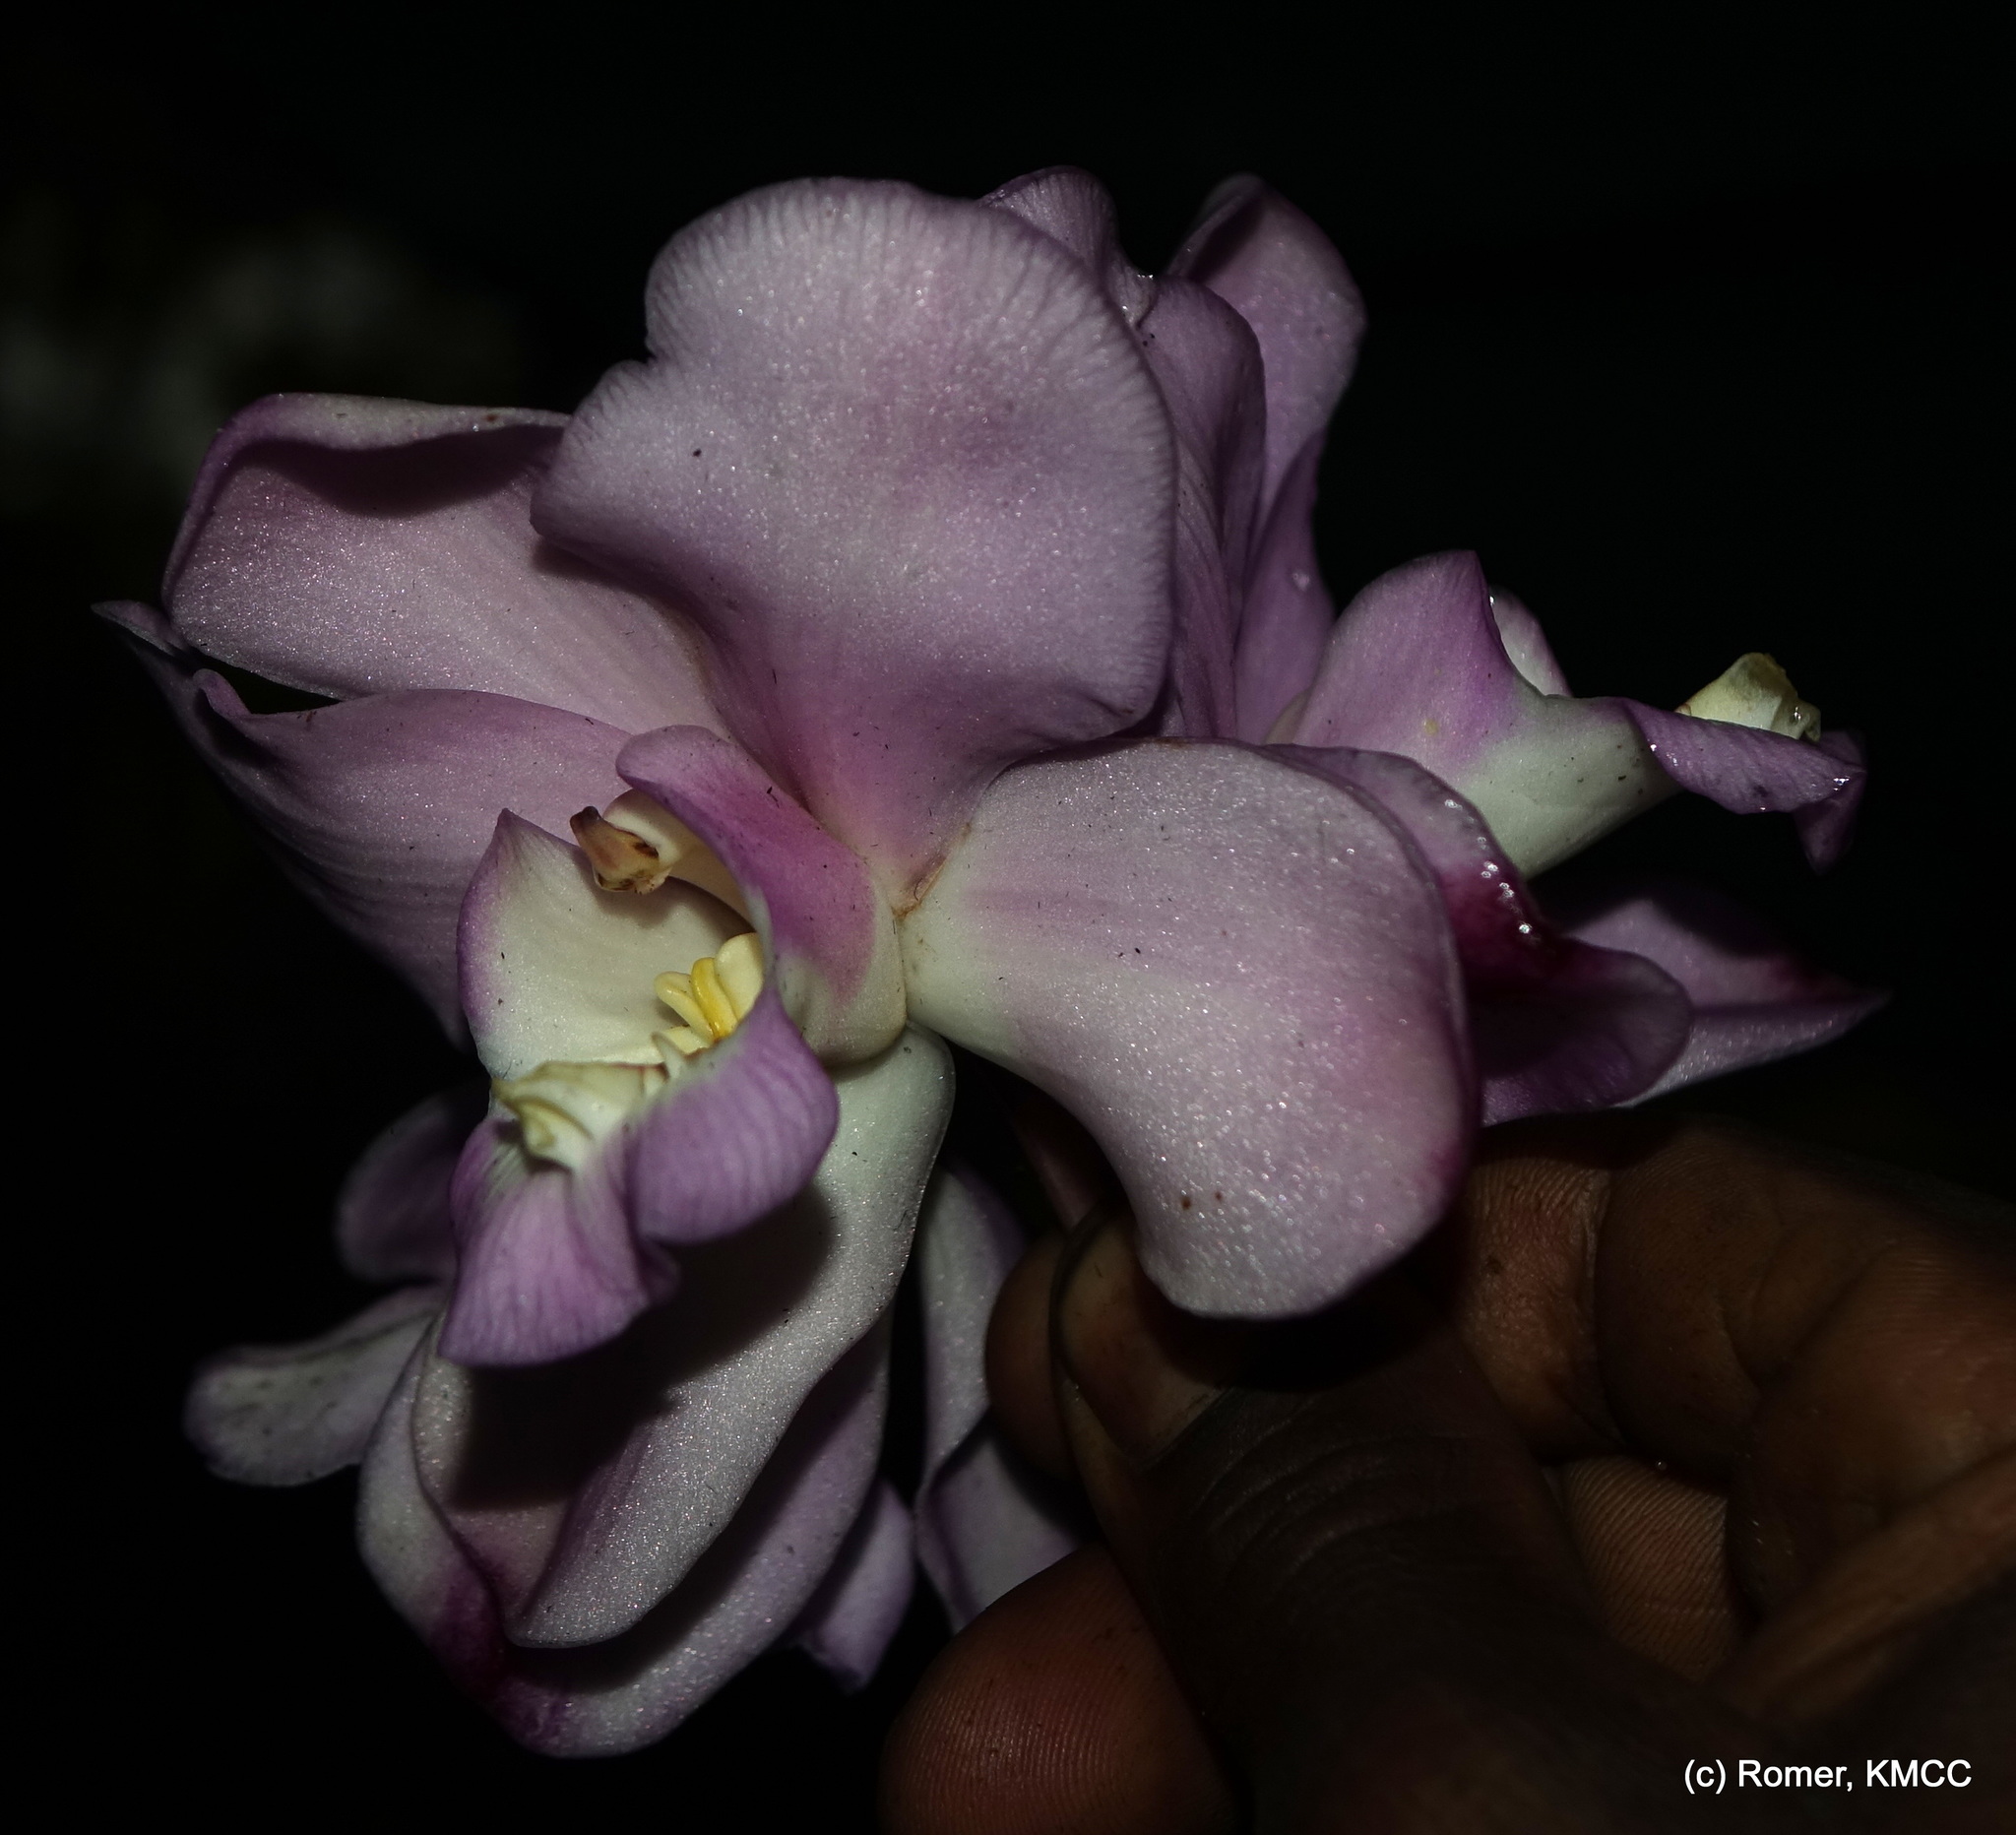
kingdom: Plantae
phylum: Tracheophyta
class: Liliopsida
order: Asparagales
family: Orchidaceae
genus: Eulophia
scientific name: Eulophia roempleriana
